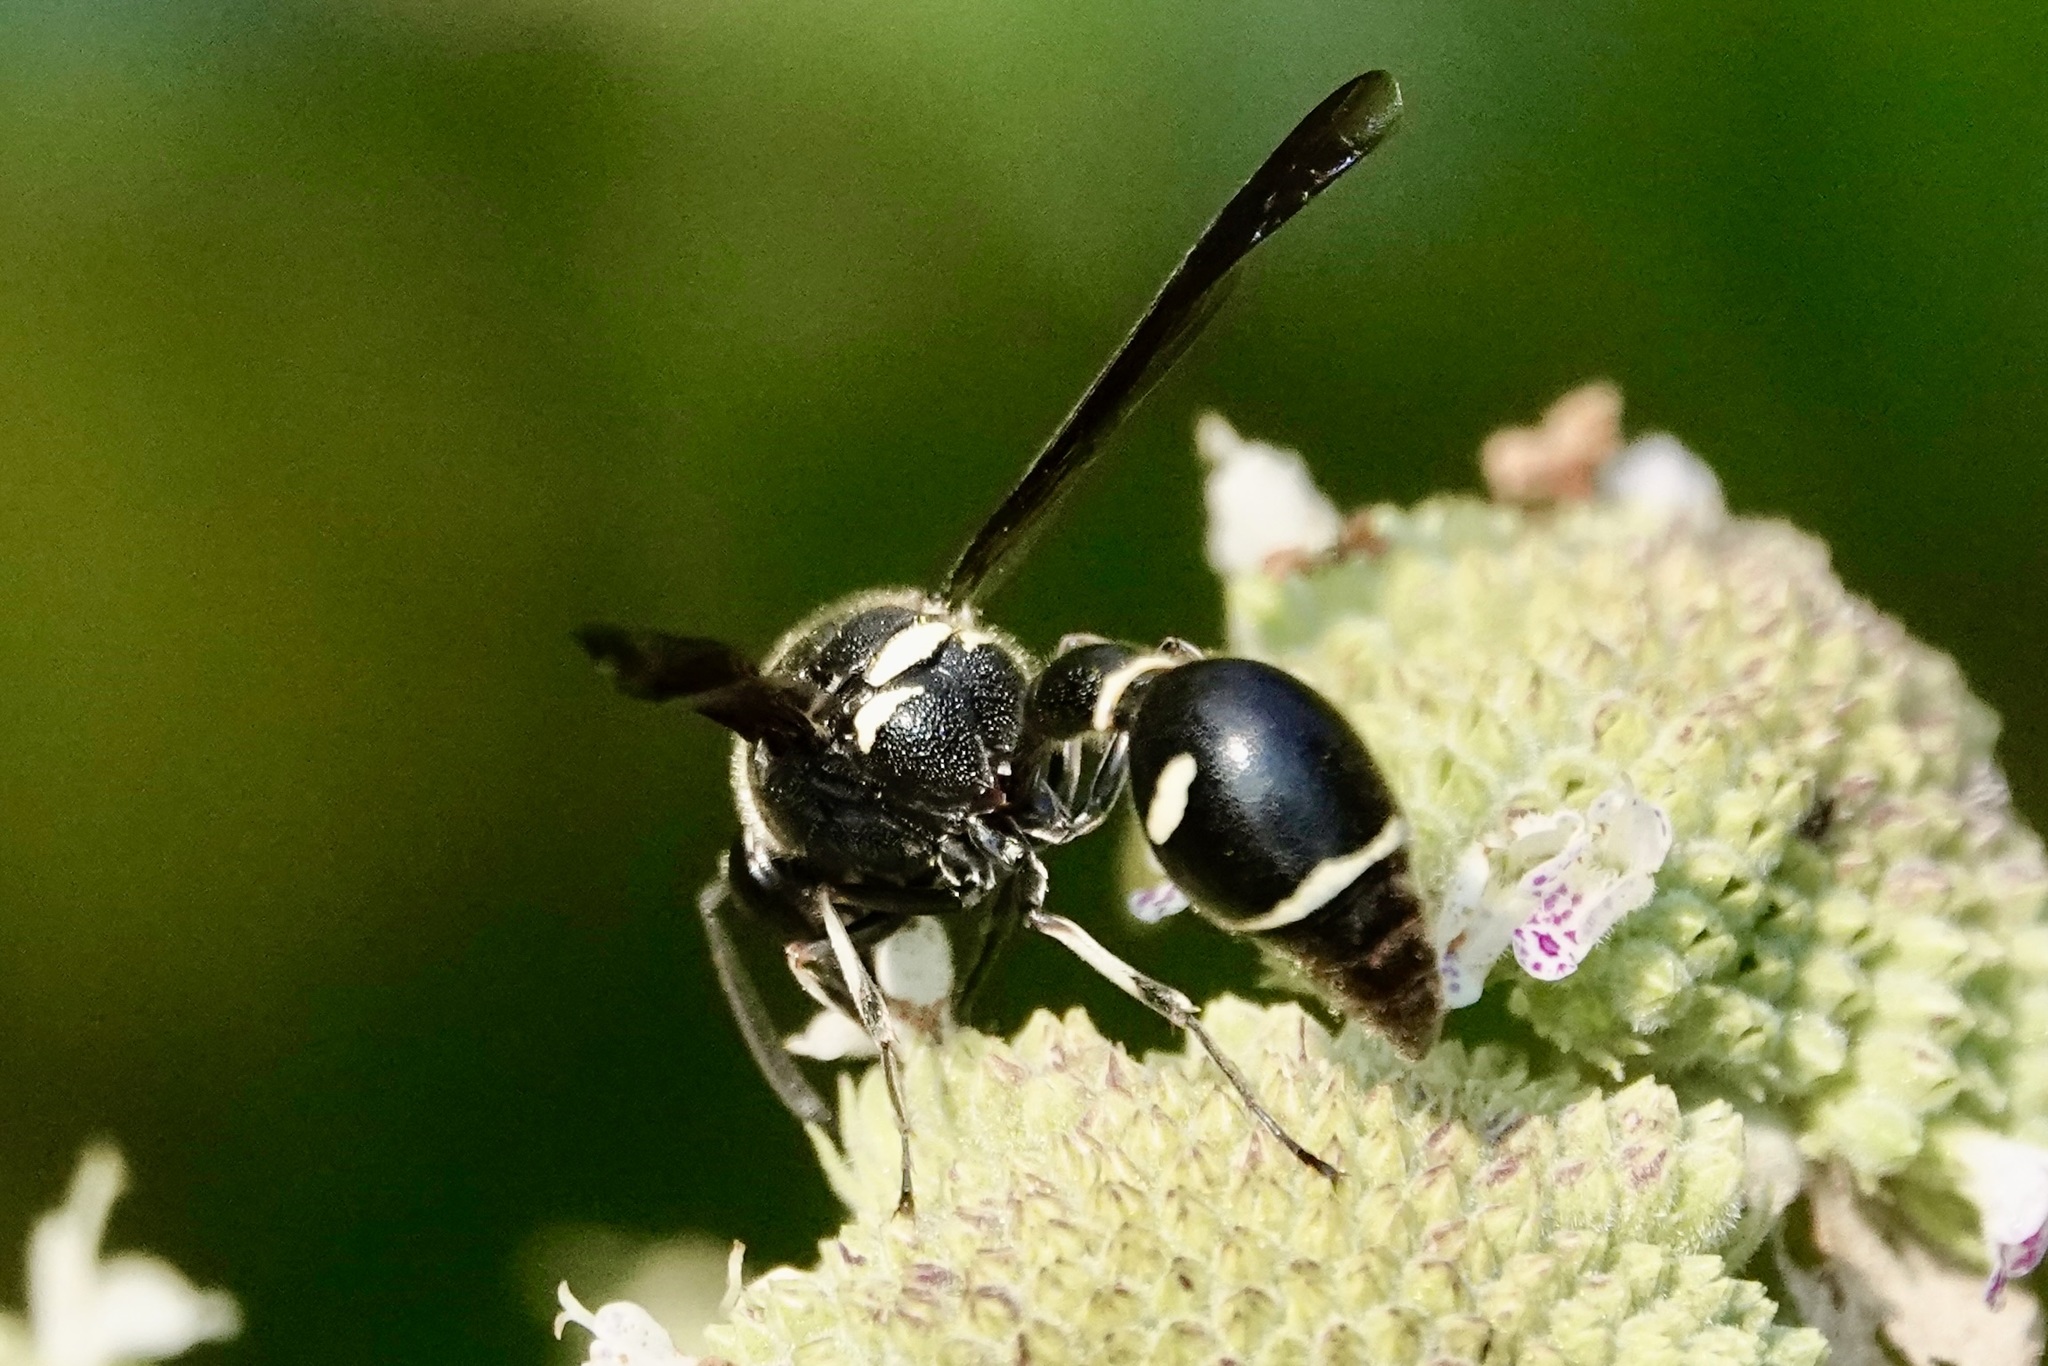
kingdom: Animalia
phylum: Arthropoda
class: Insecta
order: Hymenoptera
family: Vespidae
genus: Eumenes
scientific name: Eumenes fraternus
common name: Fraternal potter wasp
